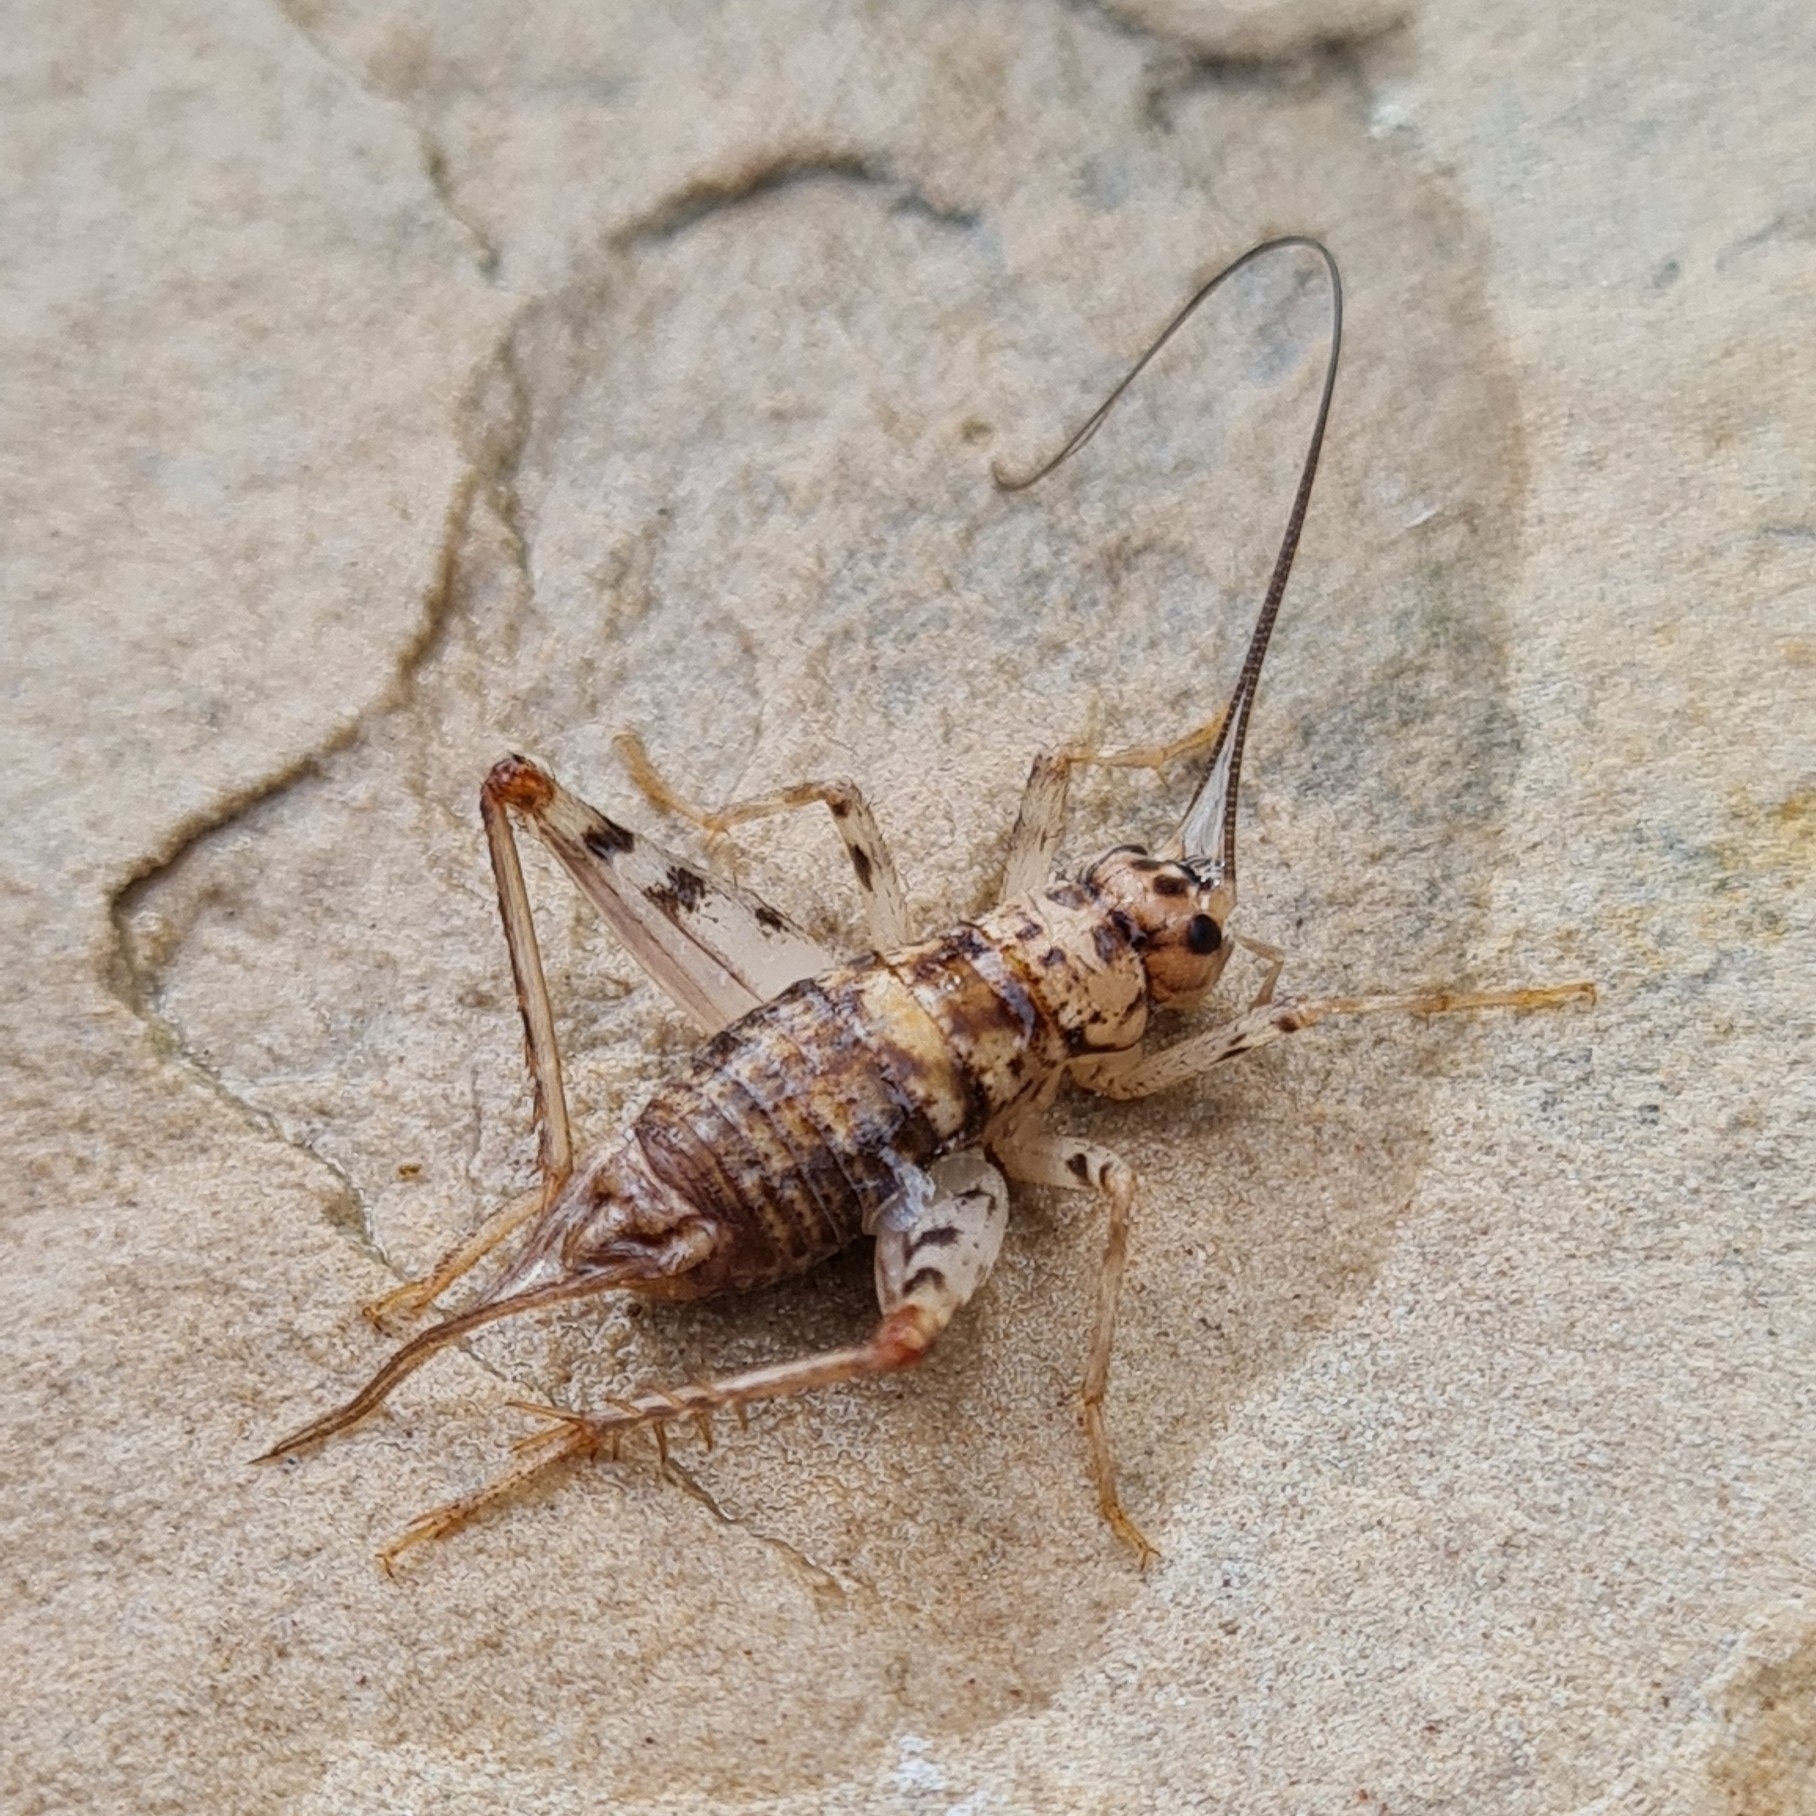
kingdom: Animalia
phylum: Arthropoda
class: Insecta
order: Orthoptera
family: Gryllidae
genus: Gryllomorpha
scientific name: Gryllomorpha dalmatina
